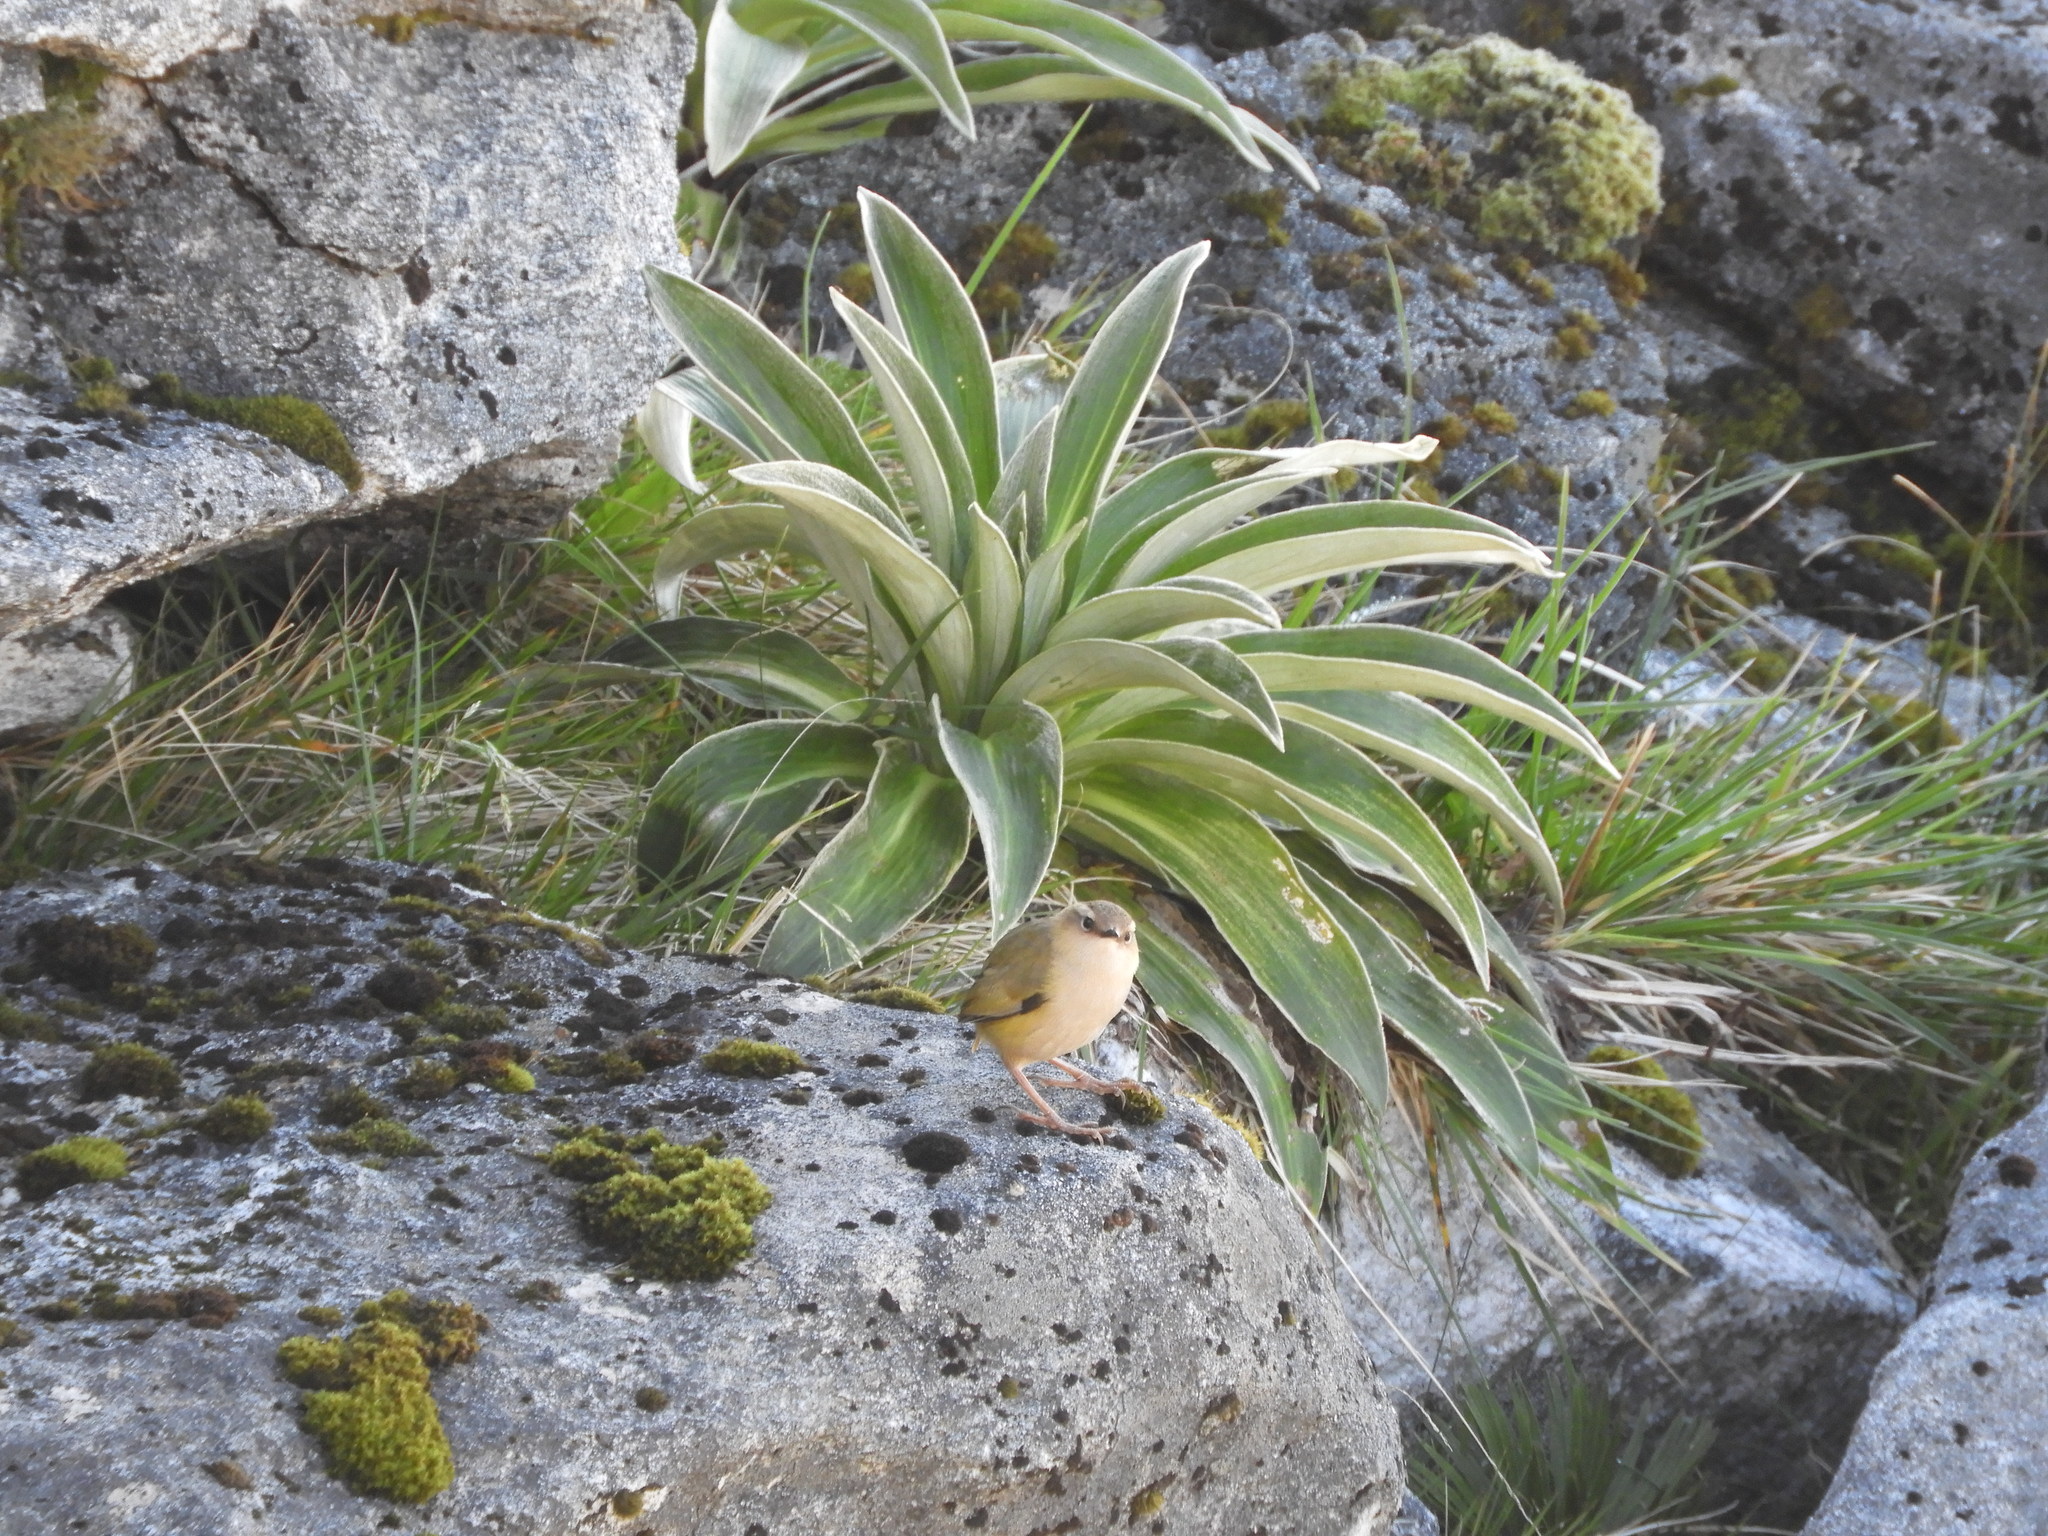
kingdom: Animalia
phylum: Chordata
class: Aves
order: Passeriformes
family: Acanthisittidae
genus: Xenicus
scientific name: Xenicus gilviventris
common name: New zealand rockwren
